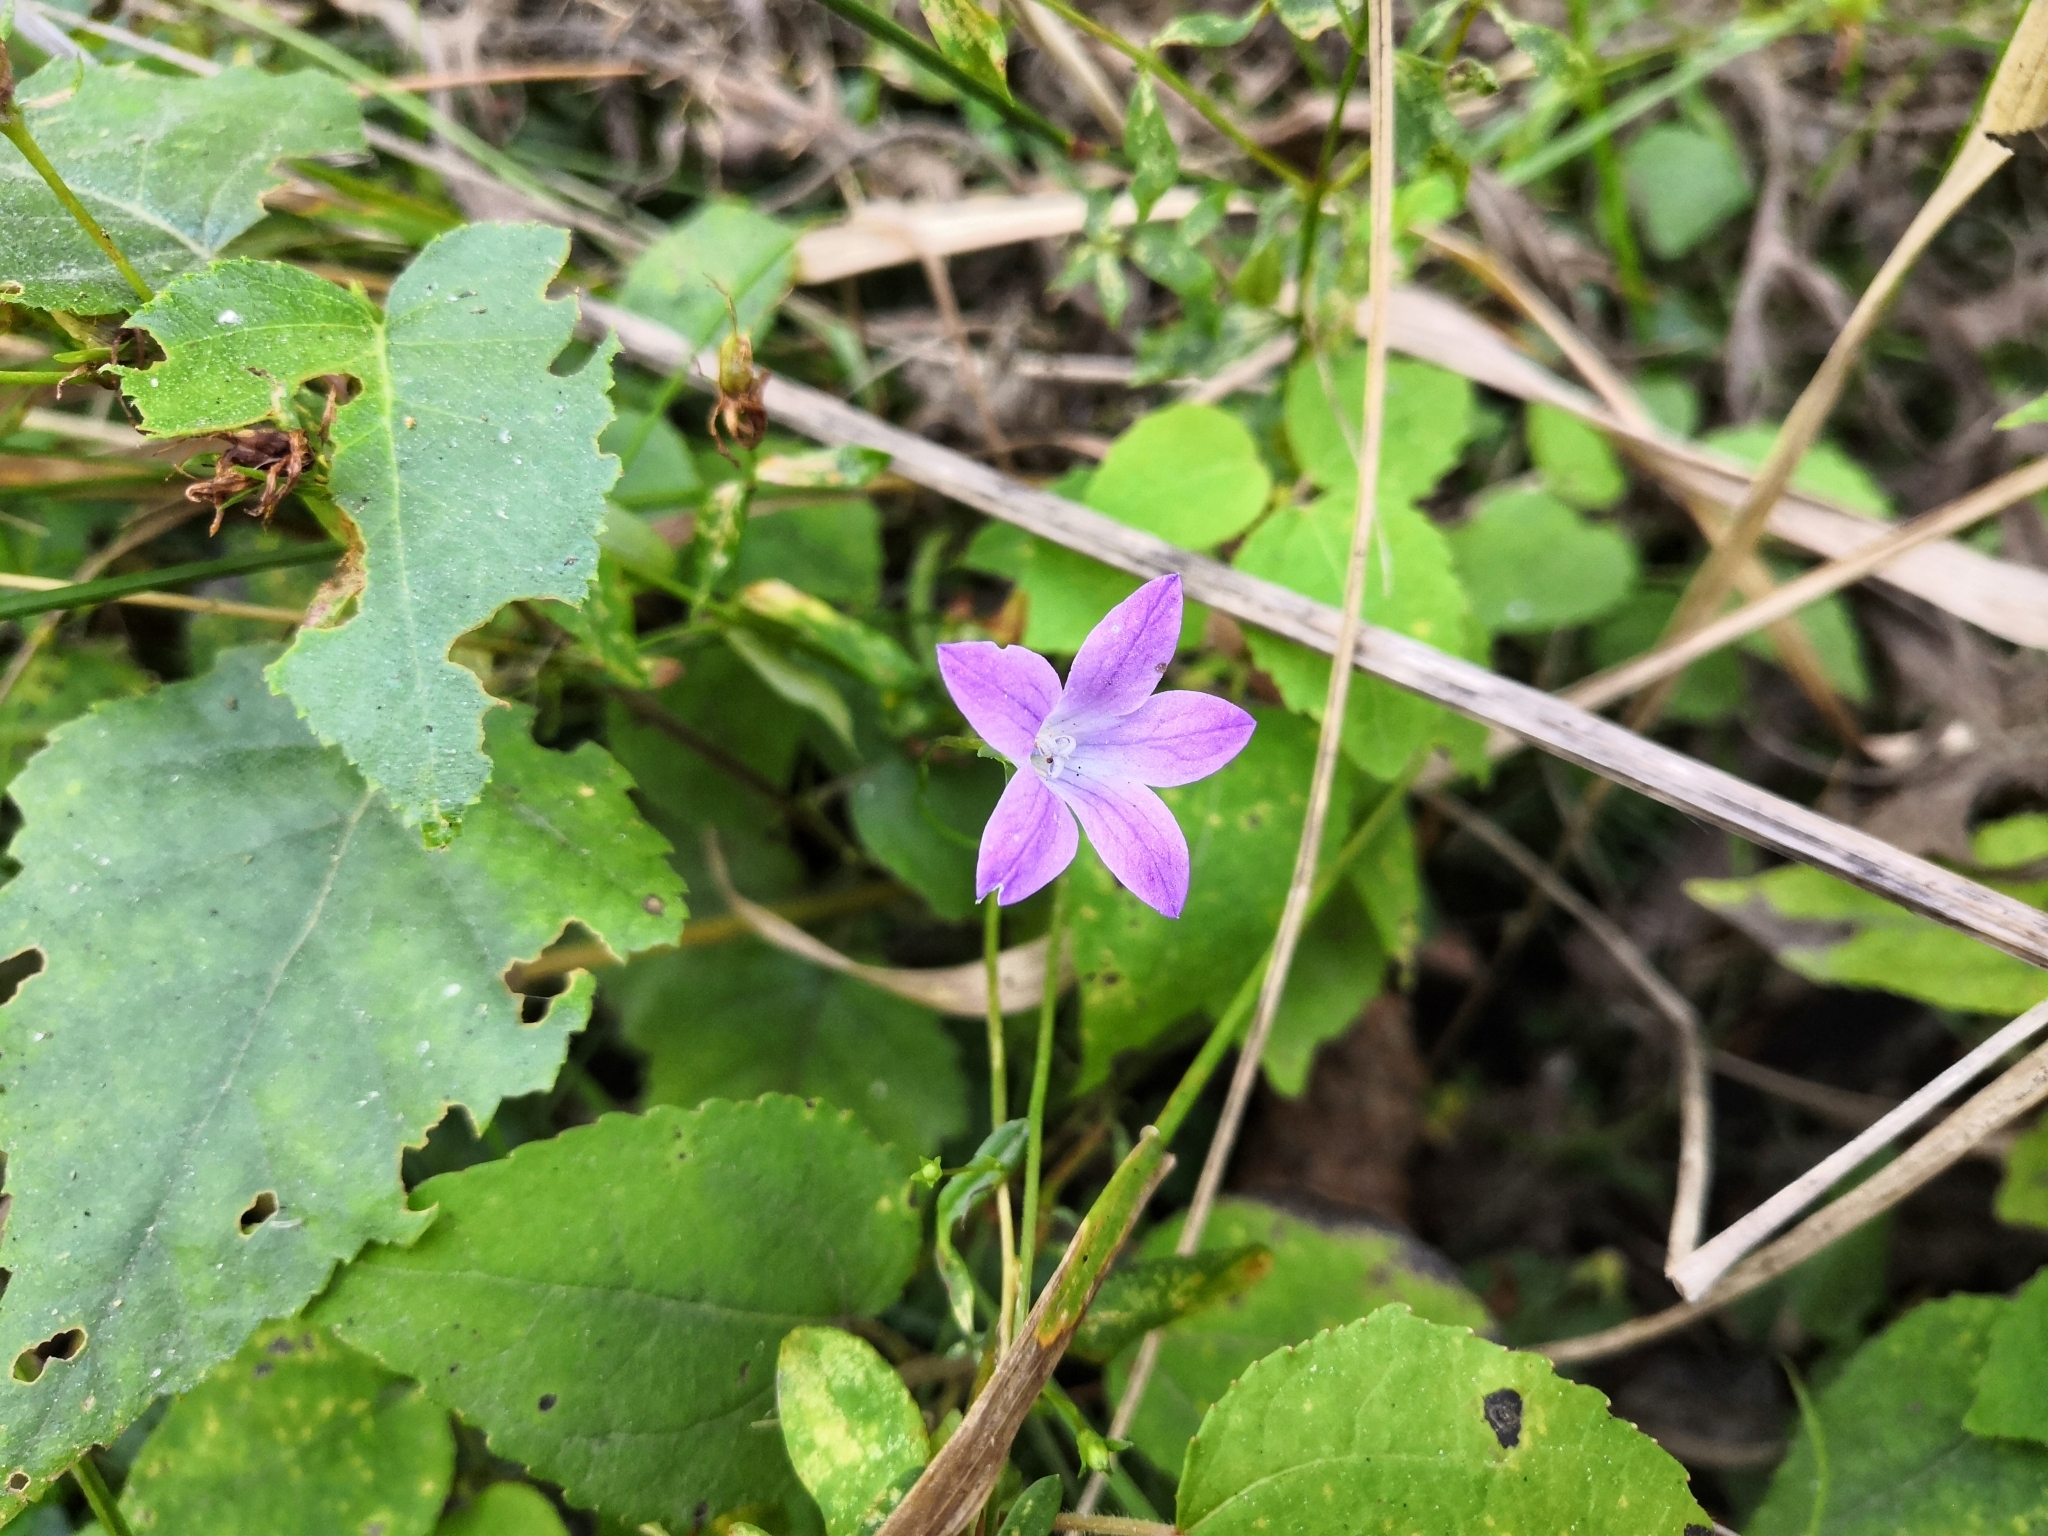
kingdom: Plantae
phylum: Tracheophyta
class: Magnoliopsida
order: Asterales
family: Campanulaceae
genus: Campanula
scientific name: Campanula patula
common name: Spreading bellflower
